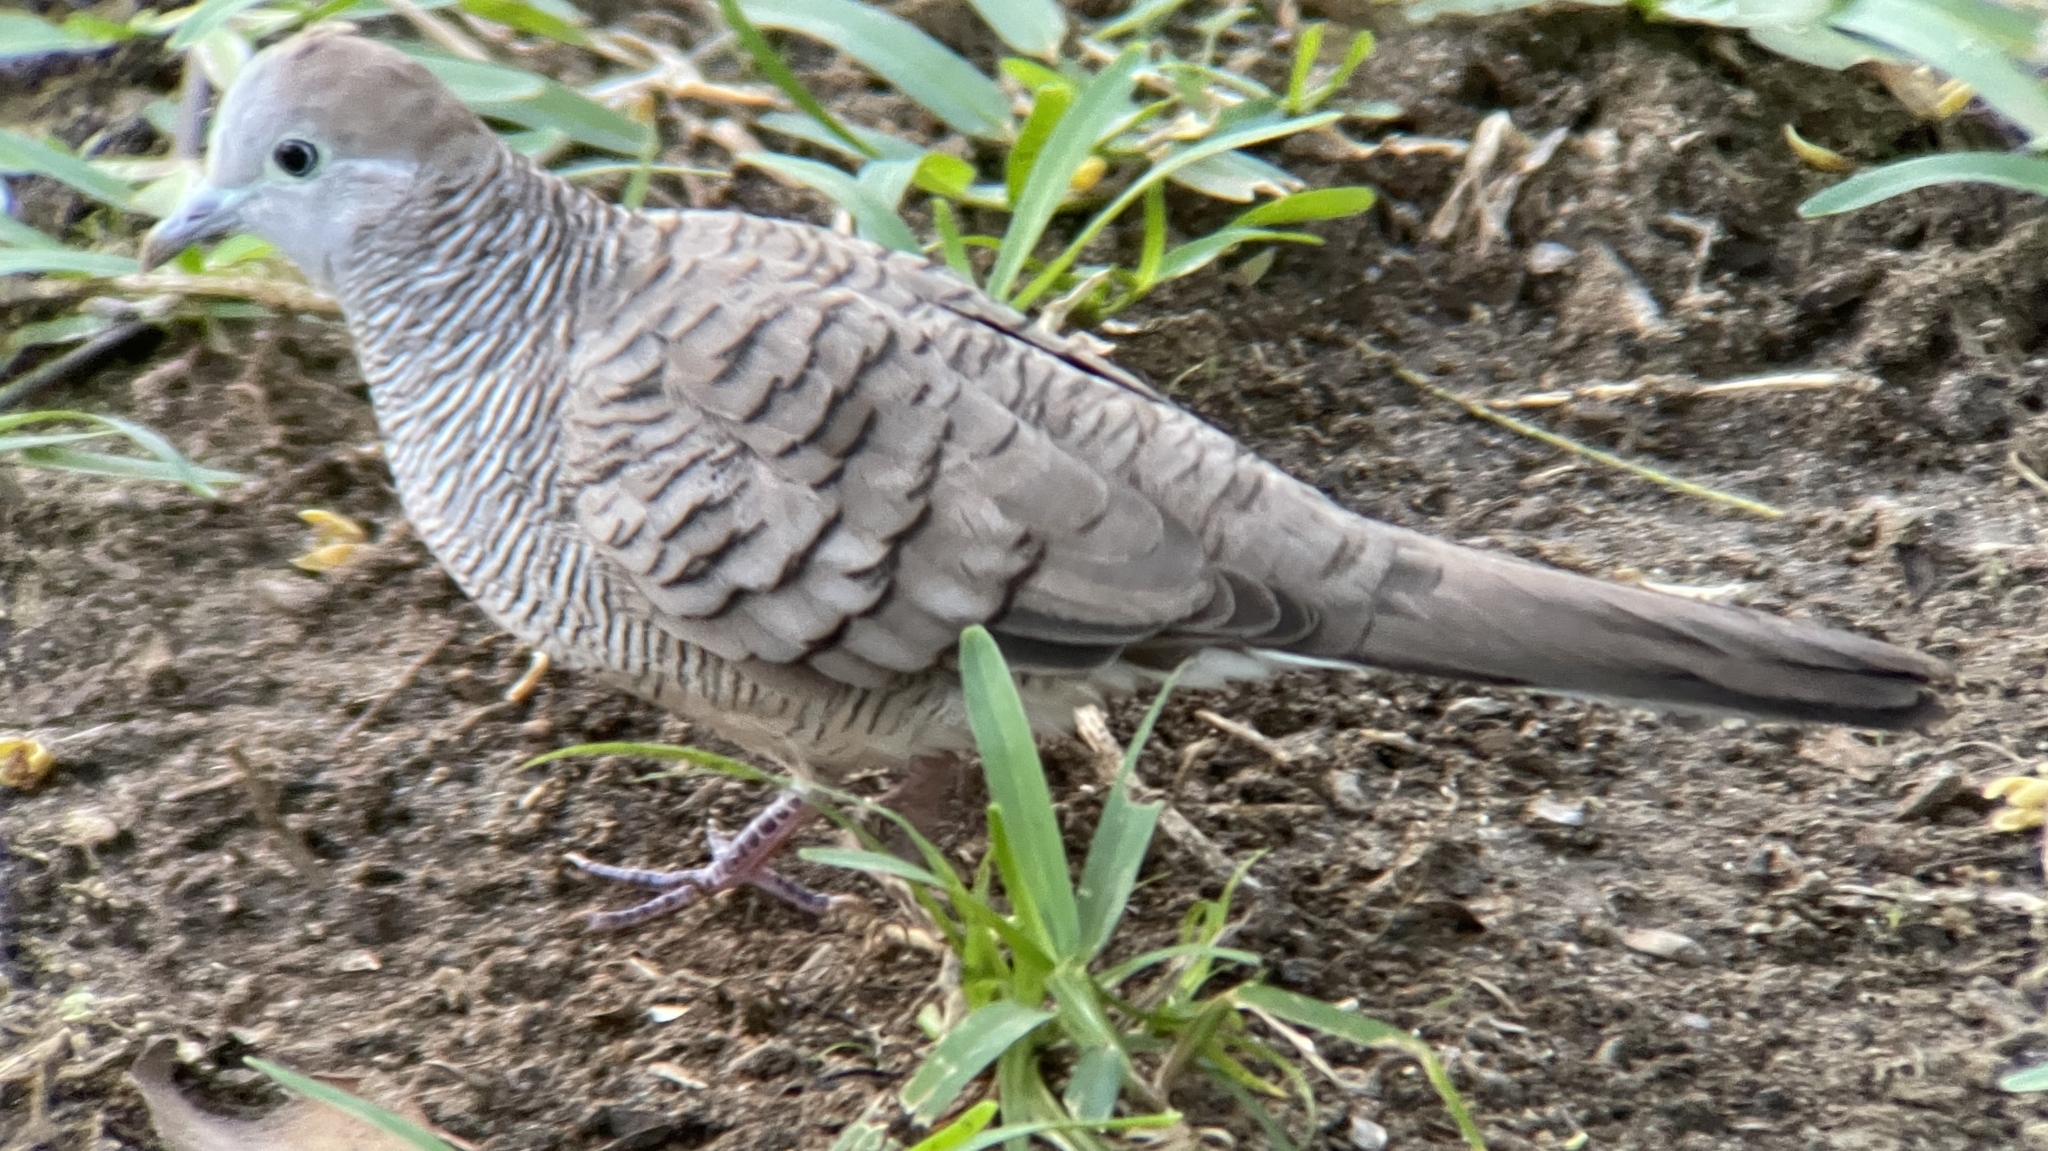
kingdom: Animalia
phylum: Chordata
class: Aves
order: Columbiformes
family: Columbidae
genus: Geopelia
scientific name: Geopelia striata
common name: Zebra dove
